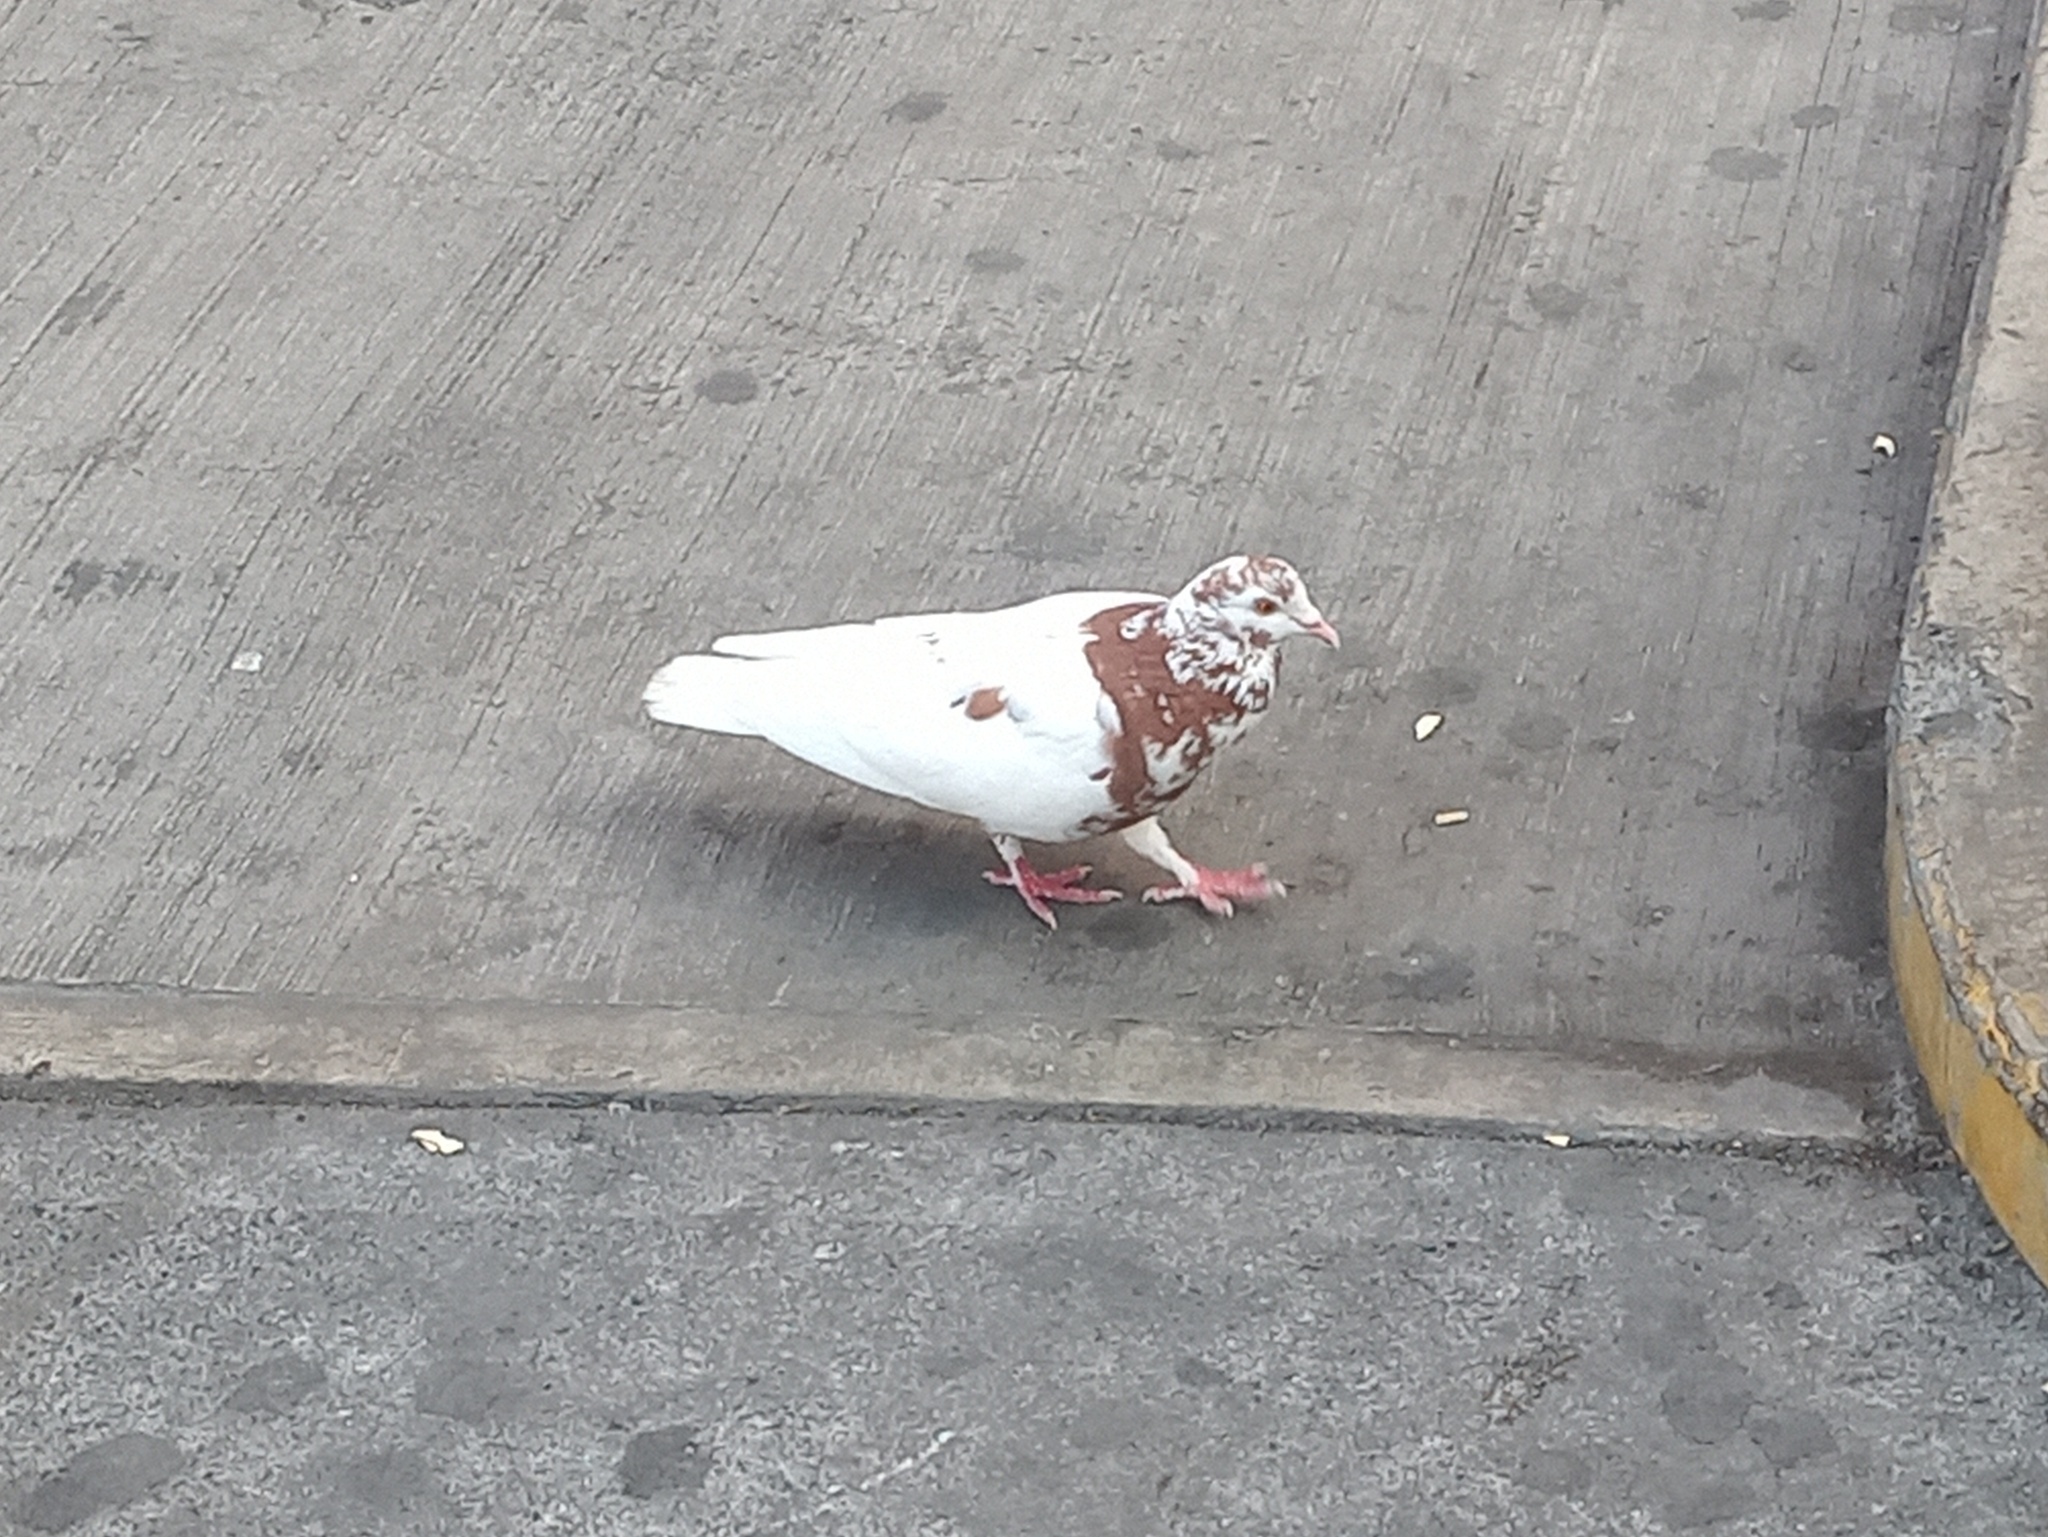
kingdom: Animalia
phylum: Chordata
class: Aves
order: Columbiformes
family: Columbidae
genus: Columba
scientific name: Columba livia
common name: Rock pigeon
